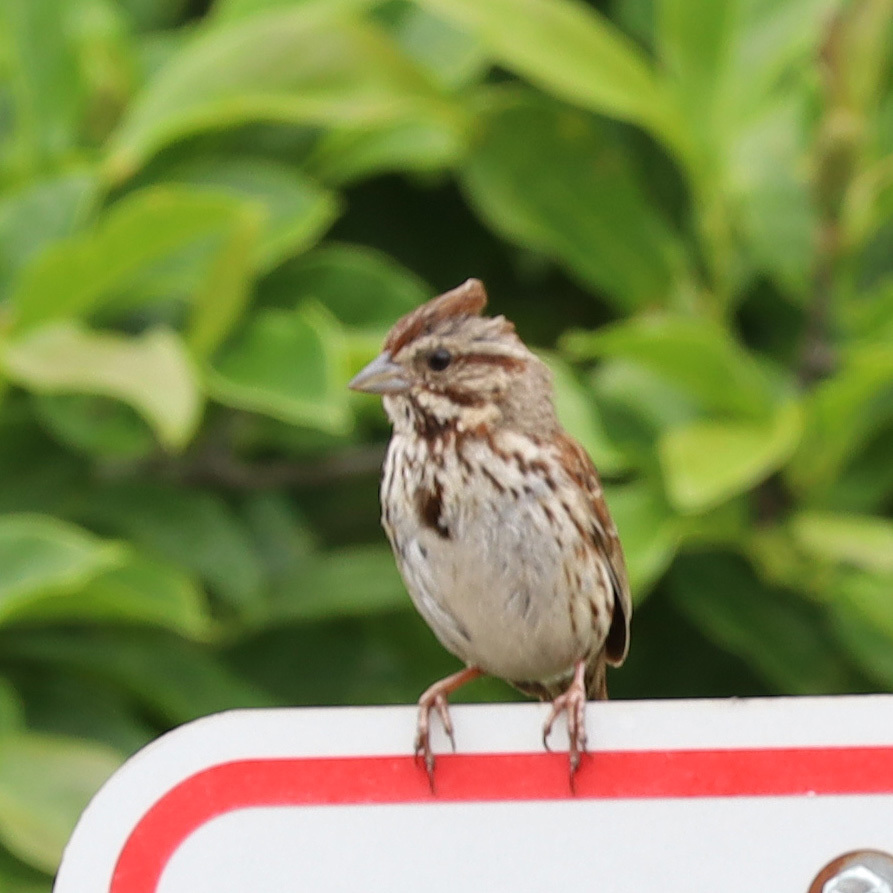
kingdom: Animalia
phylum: Chordata
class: Aves
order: Passeriformes
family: Passerellidae
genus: Melospiza
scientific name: Melospiza melodia
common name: Song sparrow
